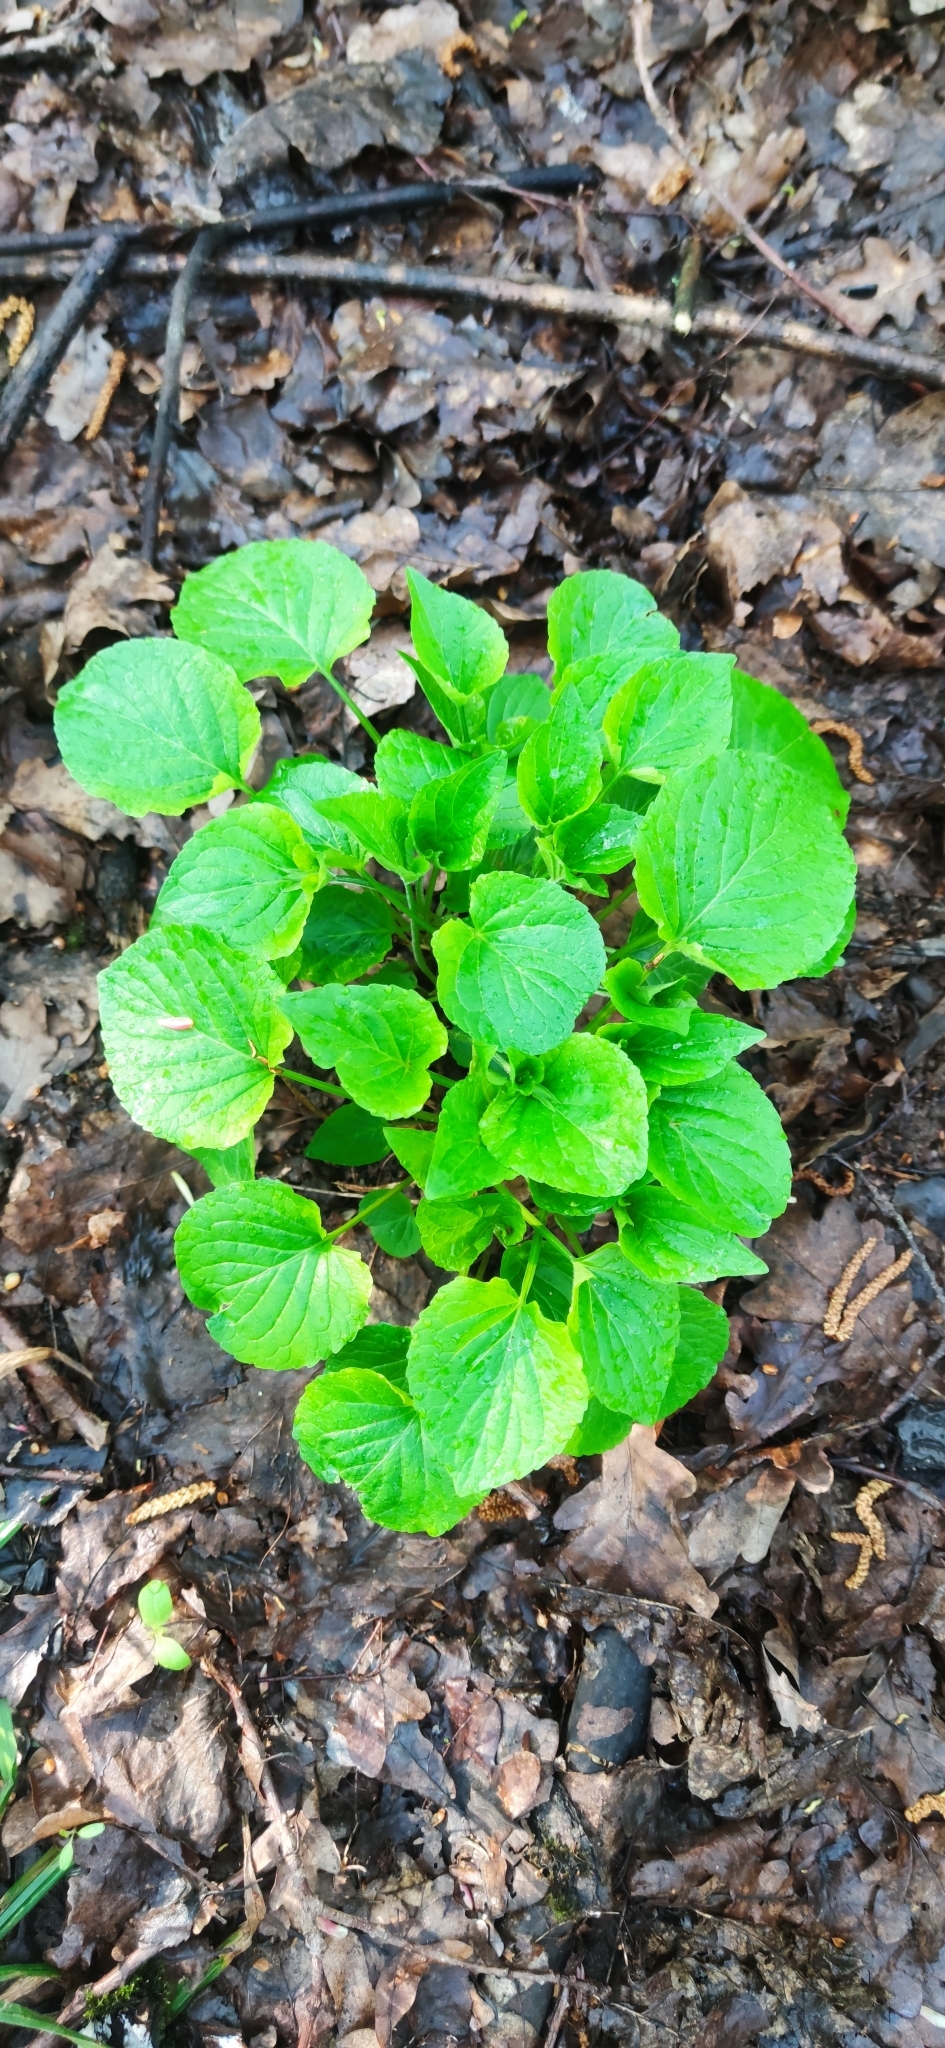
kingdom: Plantae
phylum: Tracheophyta
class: Magnoliopsida
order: Malpighiales
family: Violaceae
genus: Viola
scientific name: Viola mirabilis
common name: Wonder violet
